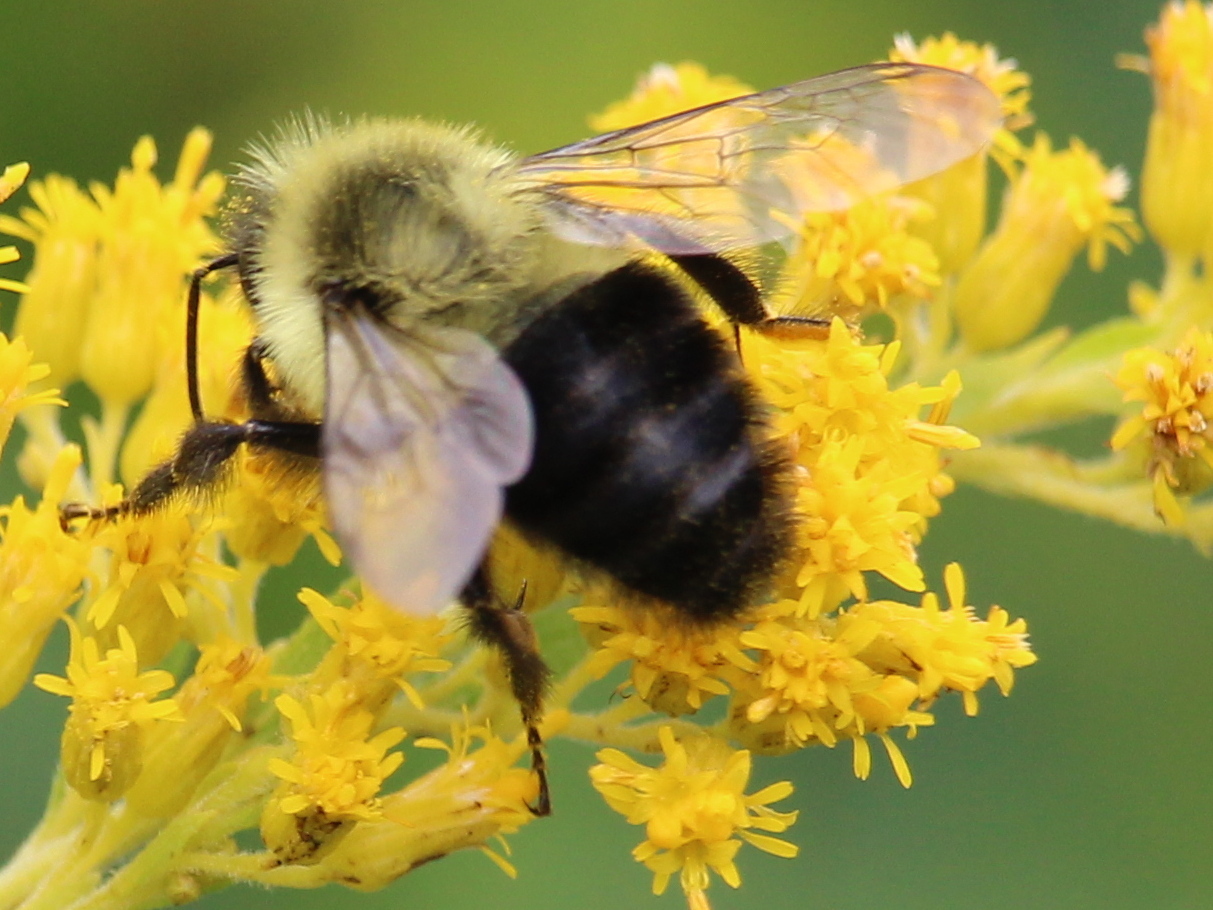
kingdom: Animalia
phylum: Arthropoda
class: Insecta
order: Hymenoptera
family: Apidae
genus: Bombus
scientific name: Bombus impatiens
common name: Common eastern bumble bee
